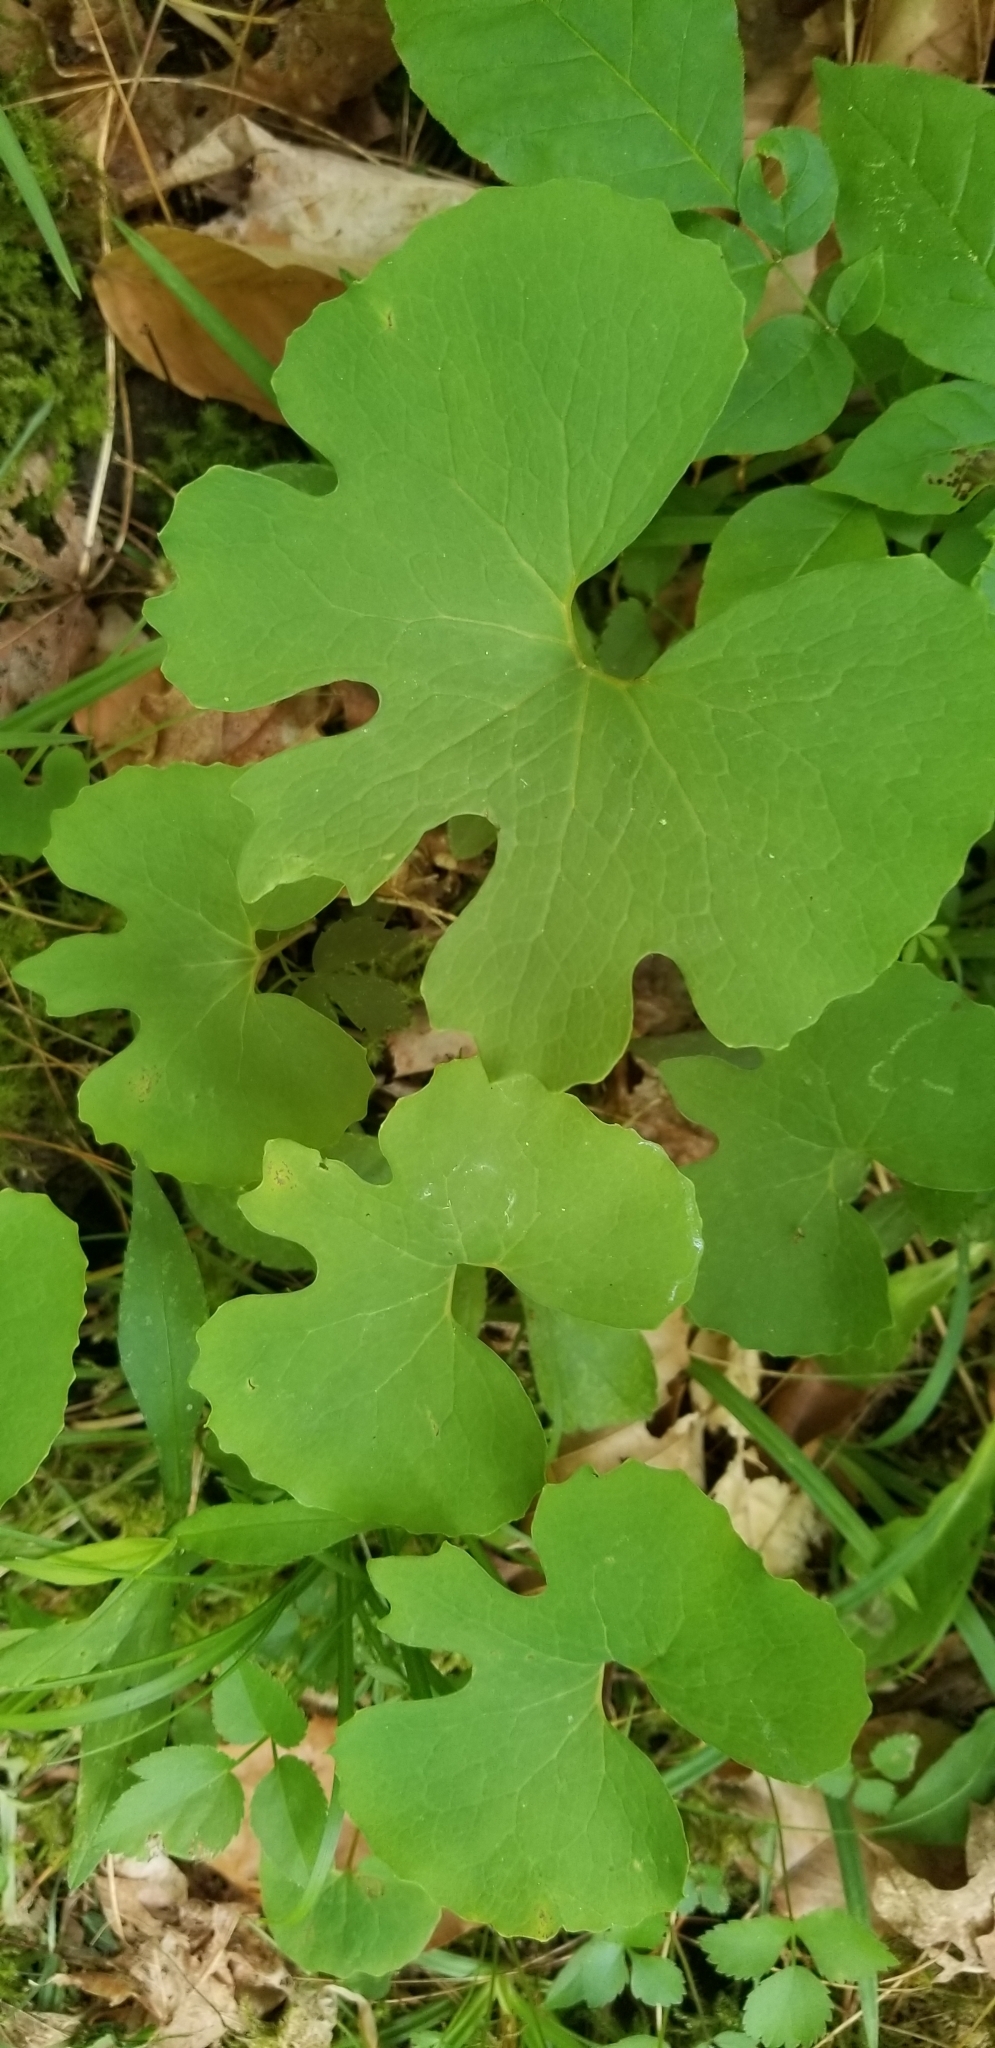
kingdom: Plantae
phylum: Tracheophyta
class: Magnoliopsida
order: Ranunculales
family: Papaveraceae
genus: Sanguinaria
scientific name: Sanguinaria canadensis
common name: Bloodroot
